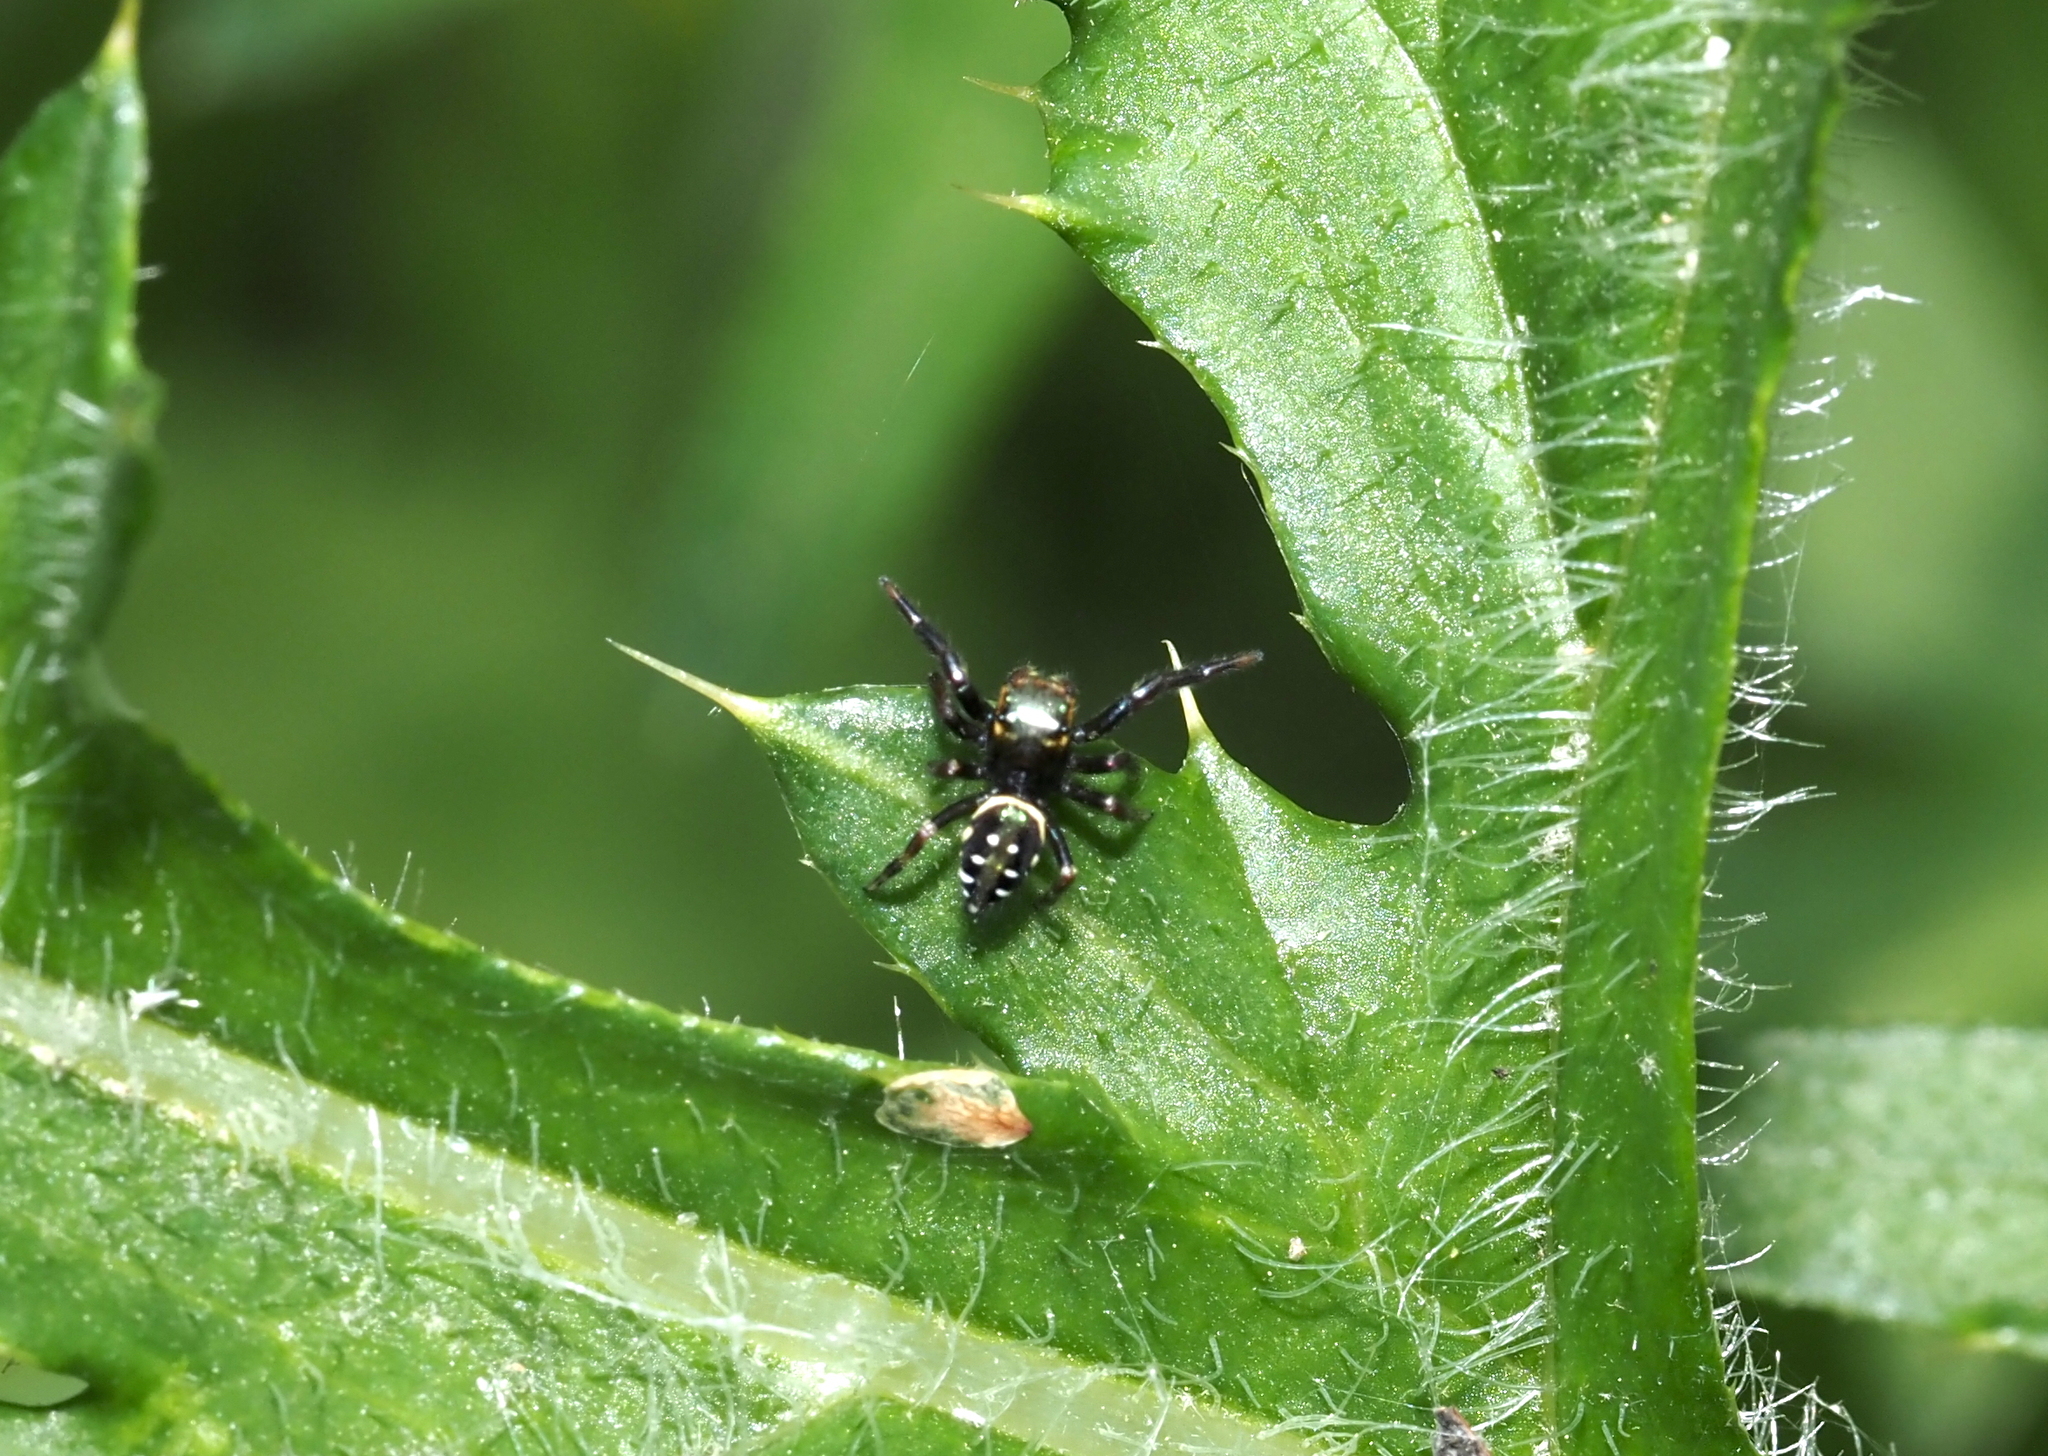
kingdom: Animalia
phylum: Arthropoda
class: Arachnida
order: Araneae
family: Salticidae
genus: Paraphidippus
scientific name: Paraphidippus aurantius
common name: Jumping spiders
